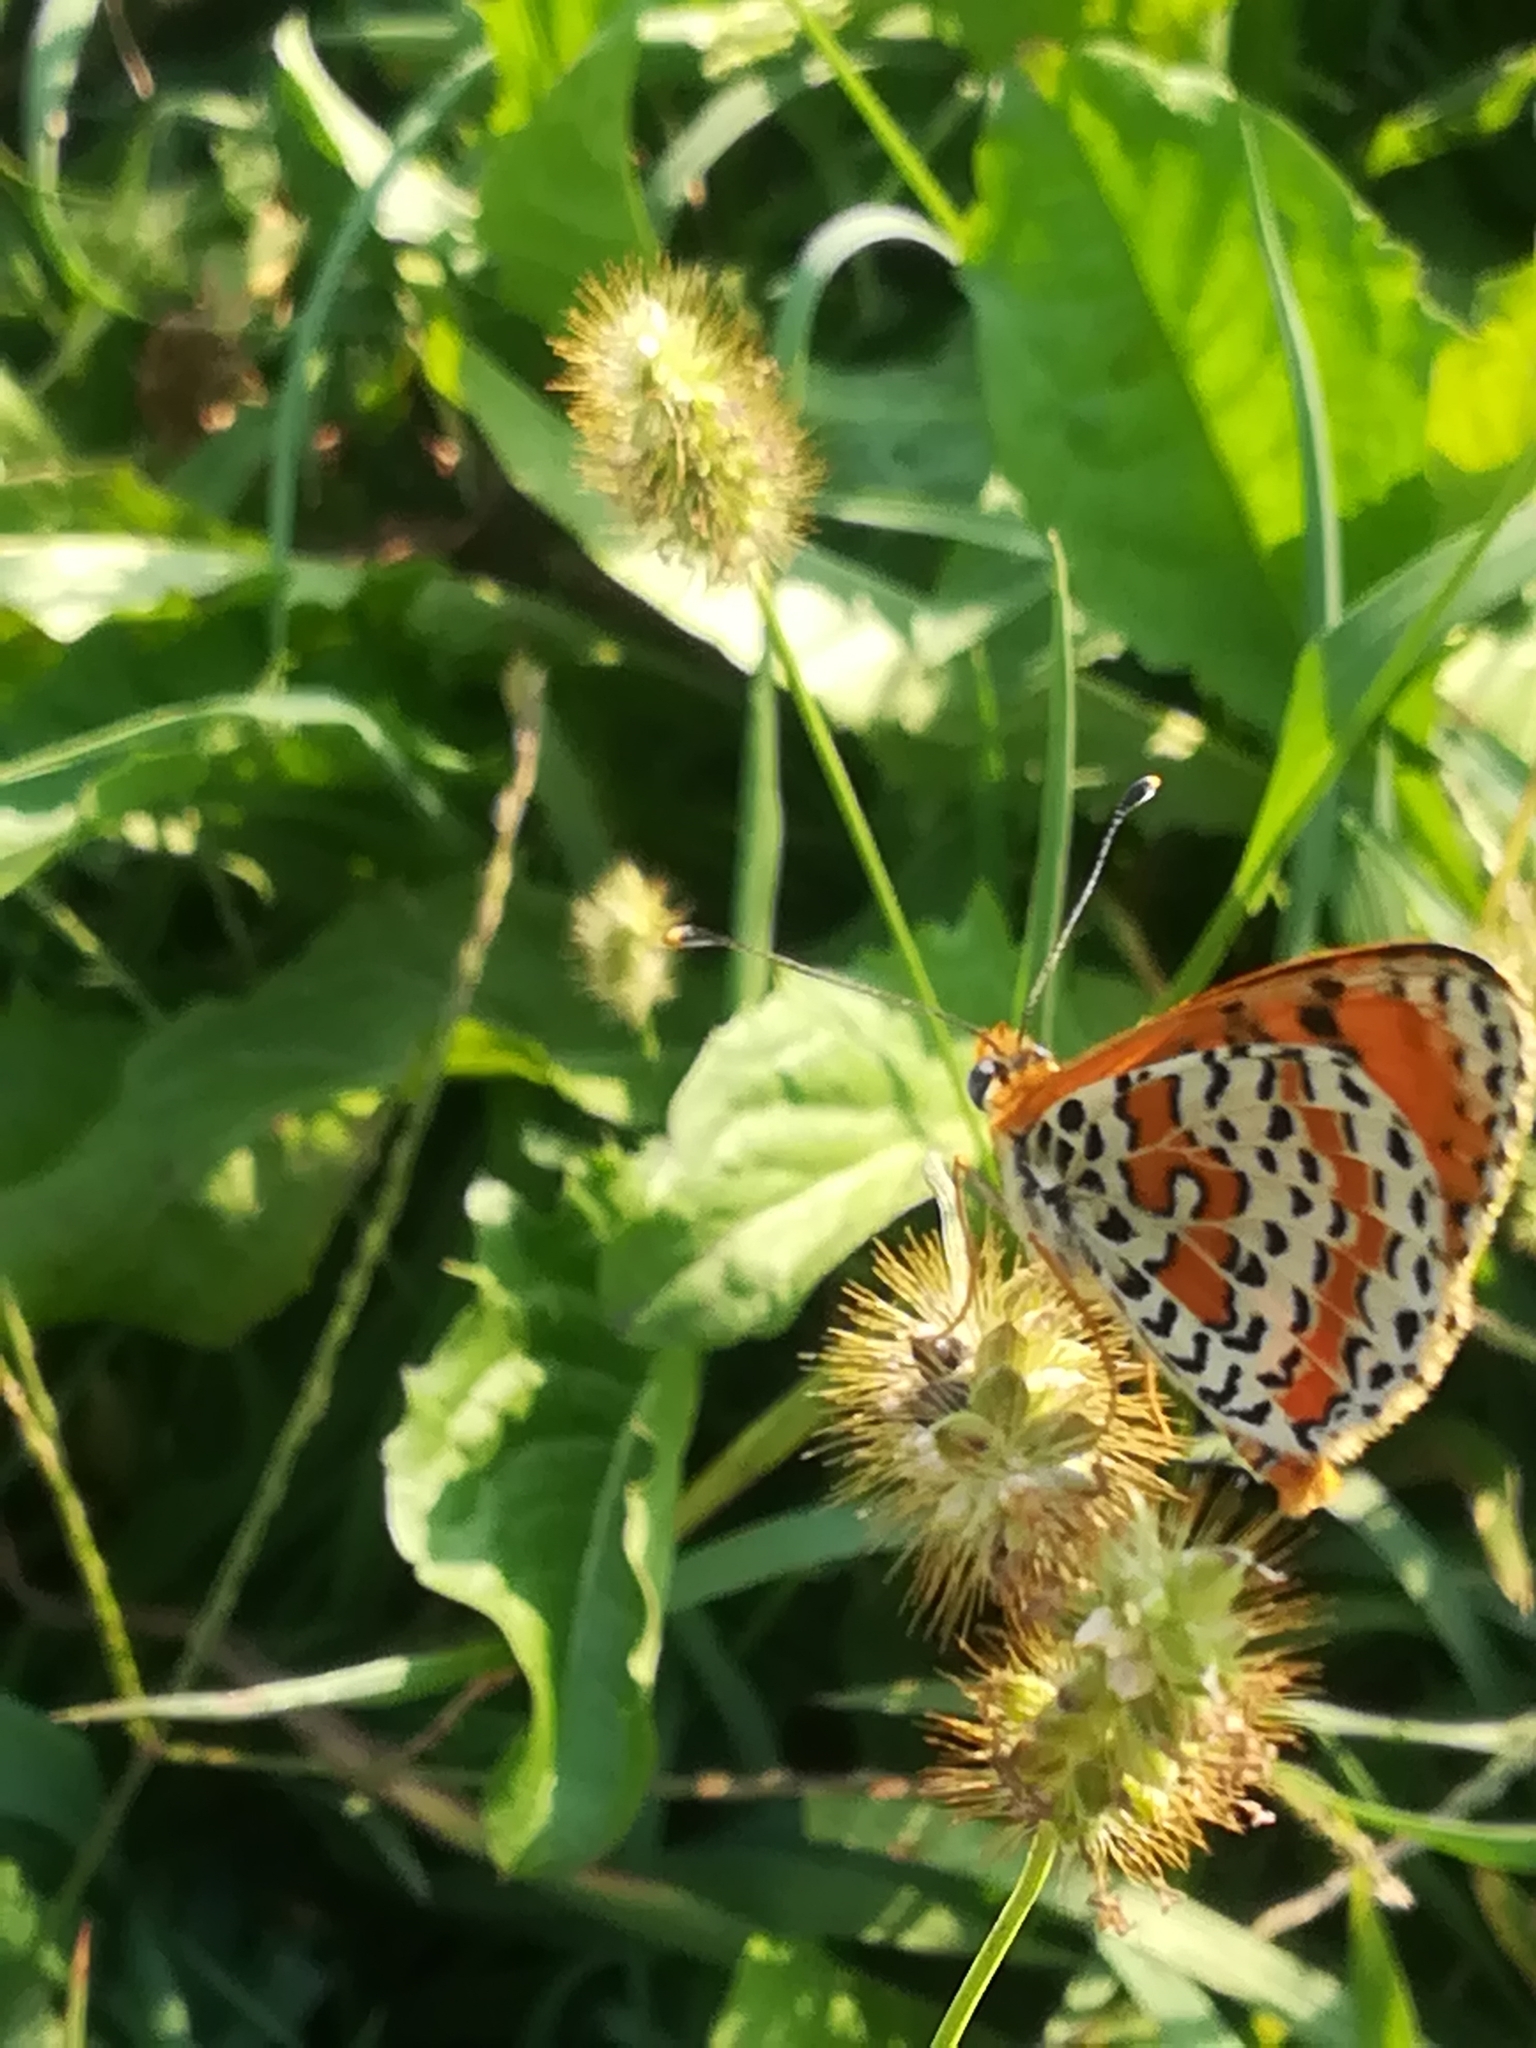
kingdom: Animalia
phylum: Arthropoda
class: Insecta
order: Lepidoptera
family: Nymphalidae
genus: Melitaea
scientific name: Melitaea didyma
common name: Spotted fritillary
